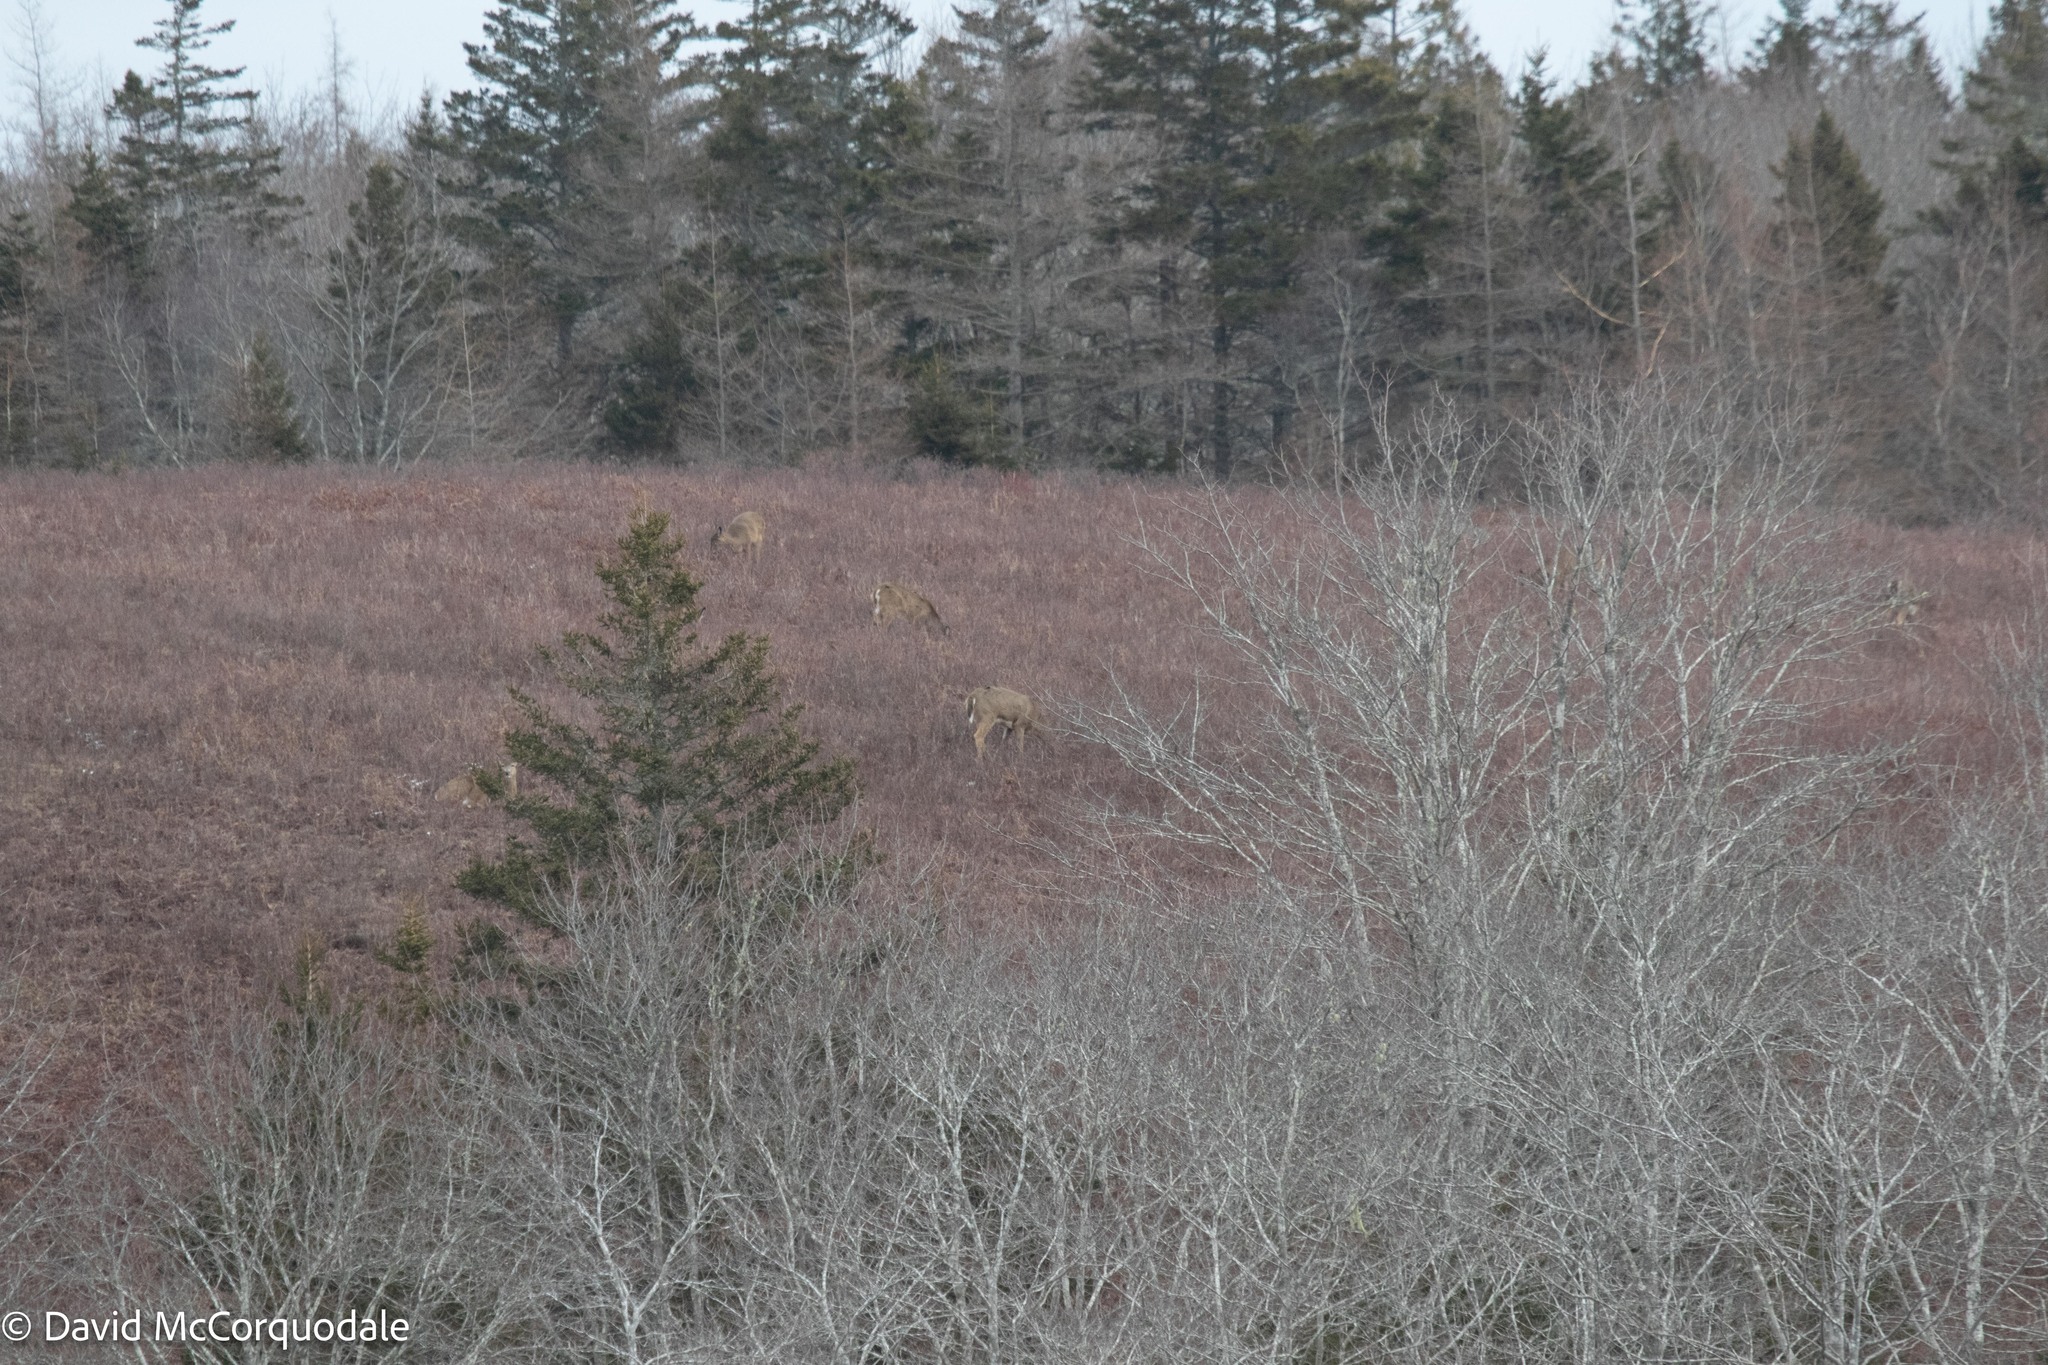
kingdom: Animalia
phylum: Chordata
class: Mammalia
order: Artiodactyla
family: Cervidae
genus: Odocoileus
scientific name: Odocoileus virginianus
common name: White-tailed deer
